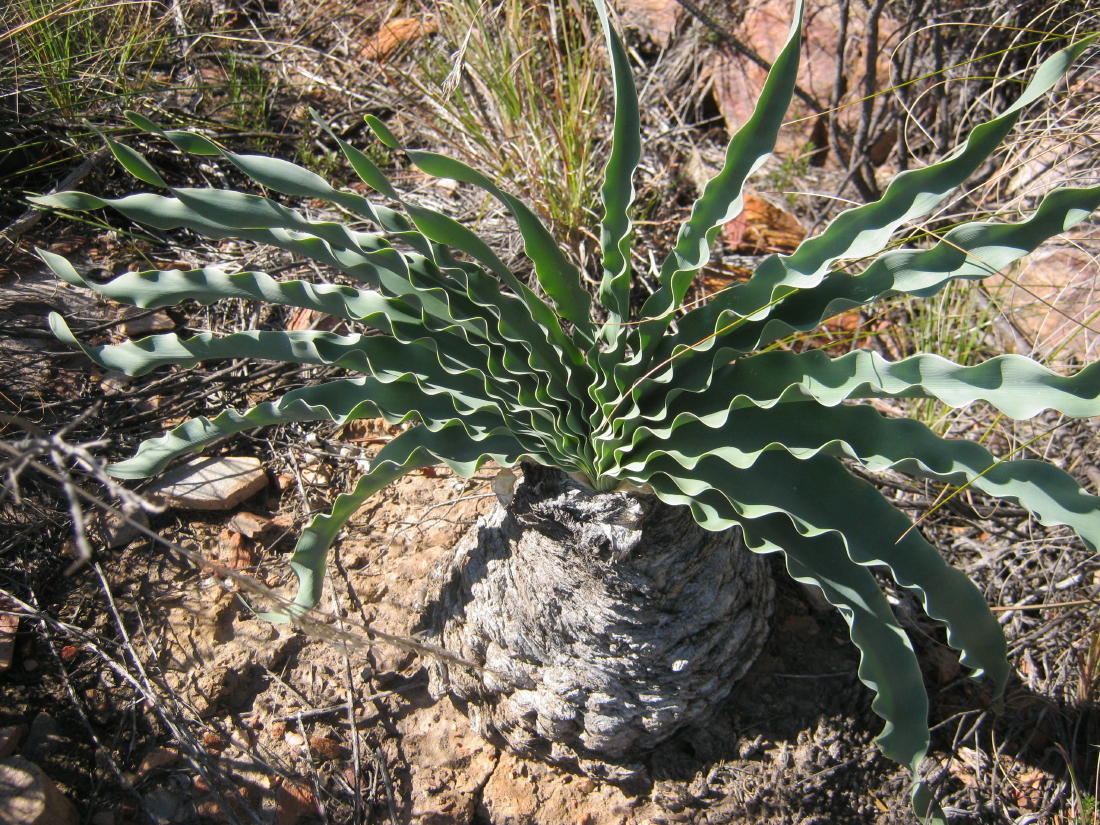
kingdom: Plantae
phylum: Tracheophyta
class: Liliopsida
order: Asparagales
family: Amaryllidaceae
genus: Boophone
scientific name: Boophone disticha
